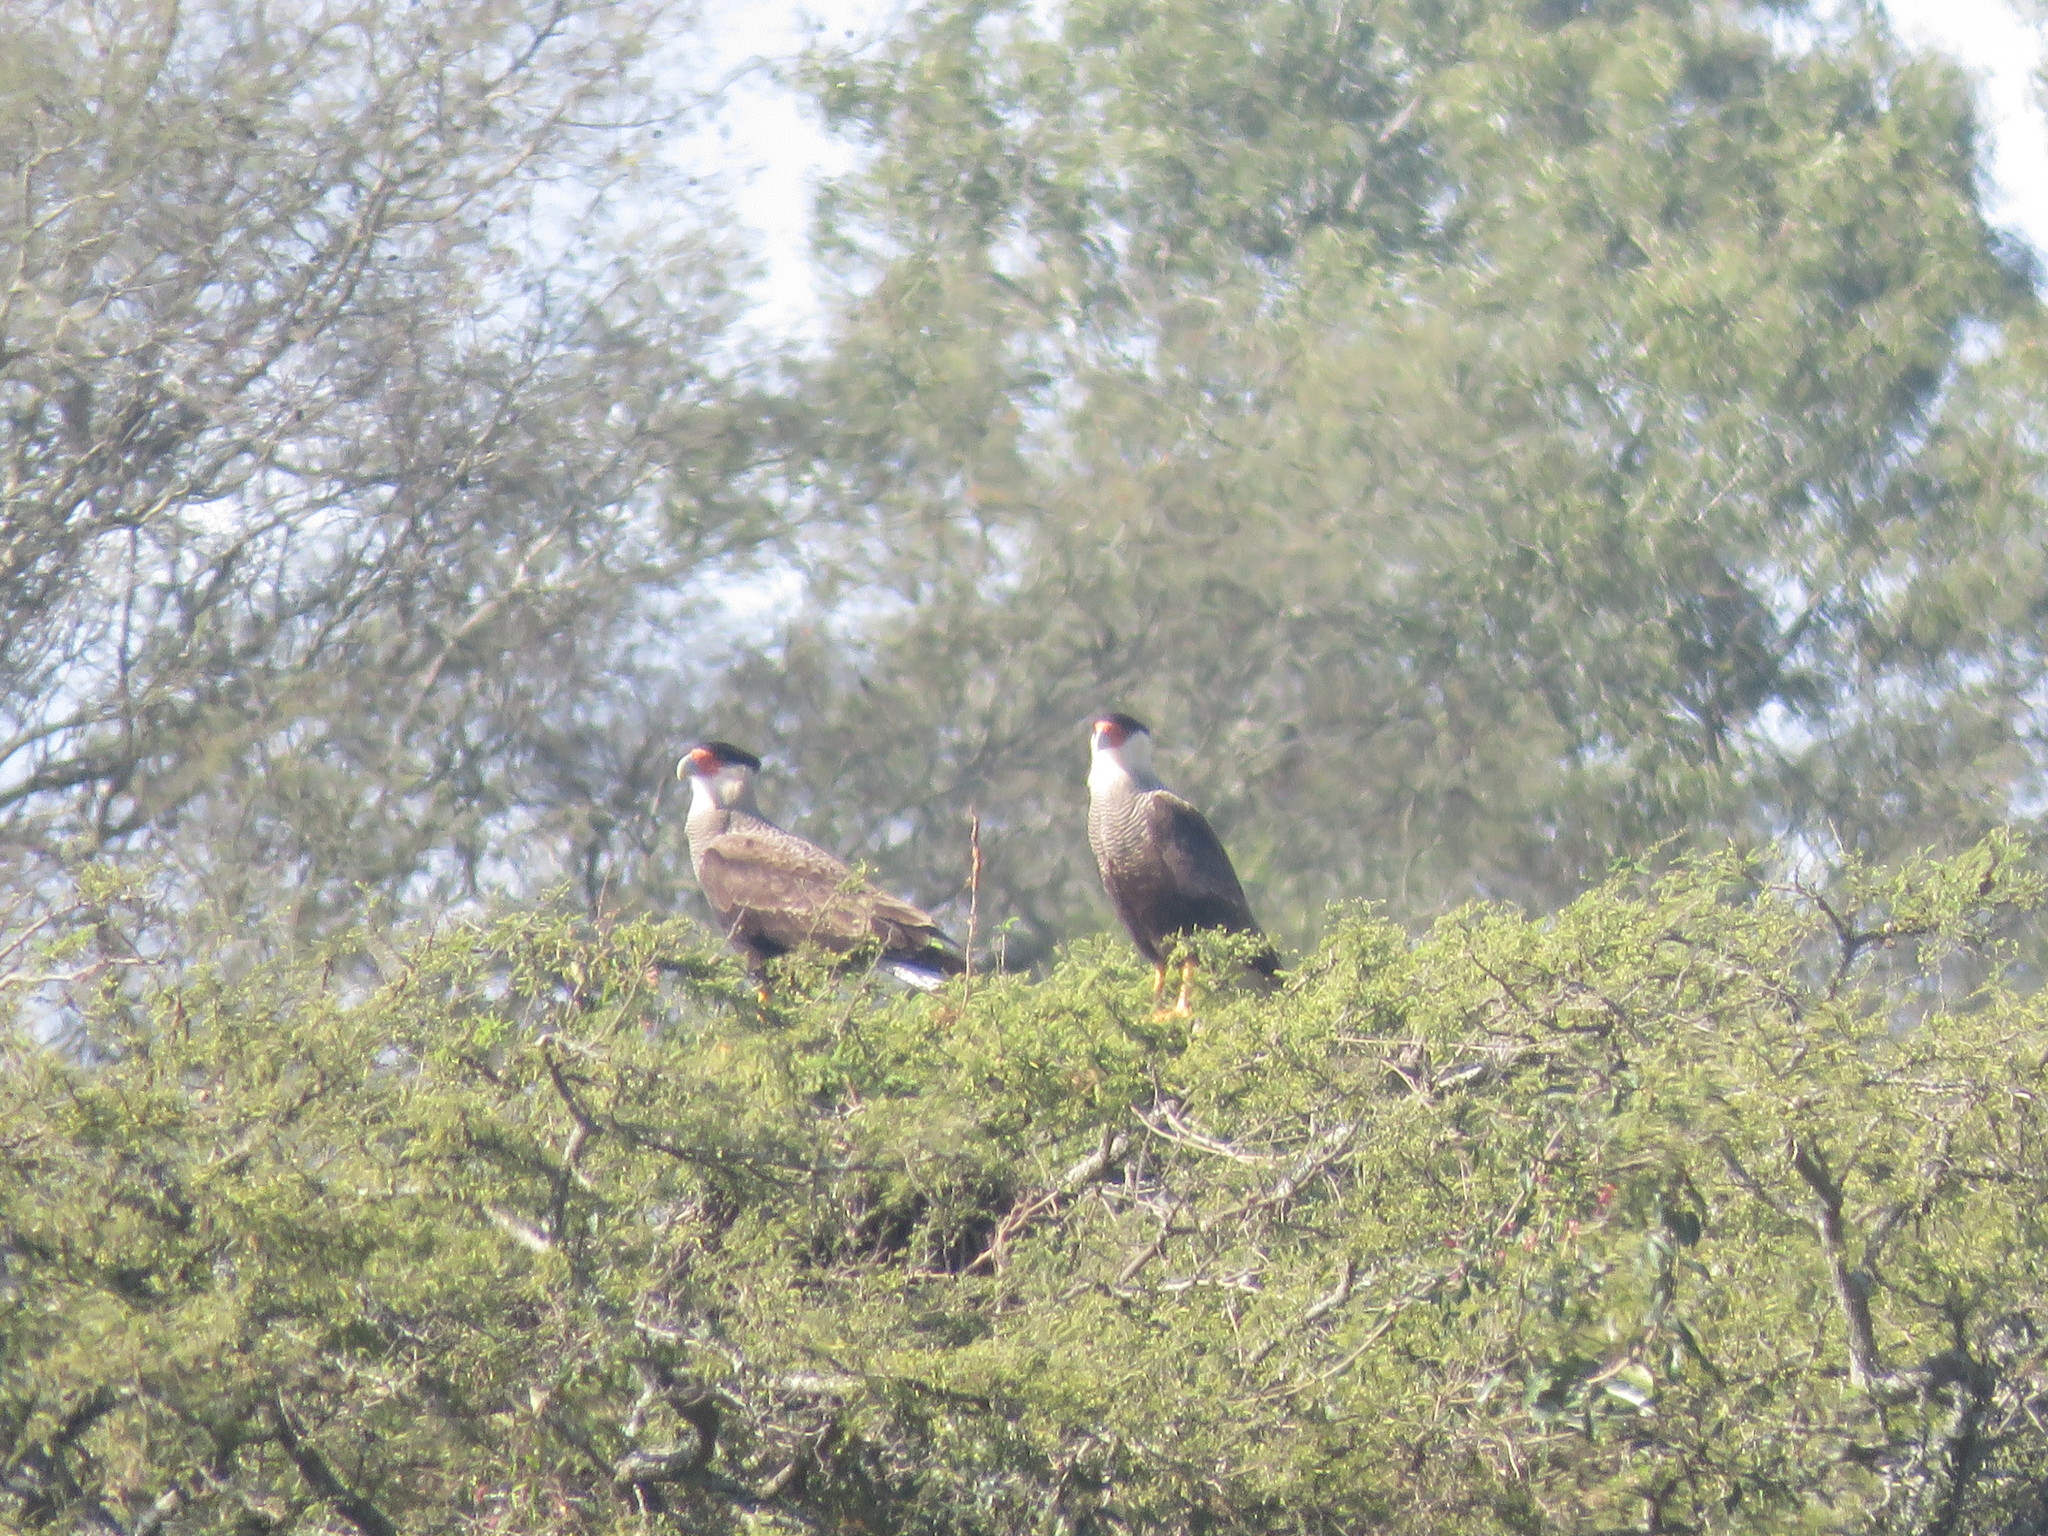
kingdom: Animalia
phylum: Chordata
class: Aves
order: Falconiformes
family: Falconidae
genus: Caracara
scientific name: Caracara plancus
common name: Southern caracara
